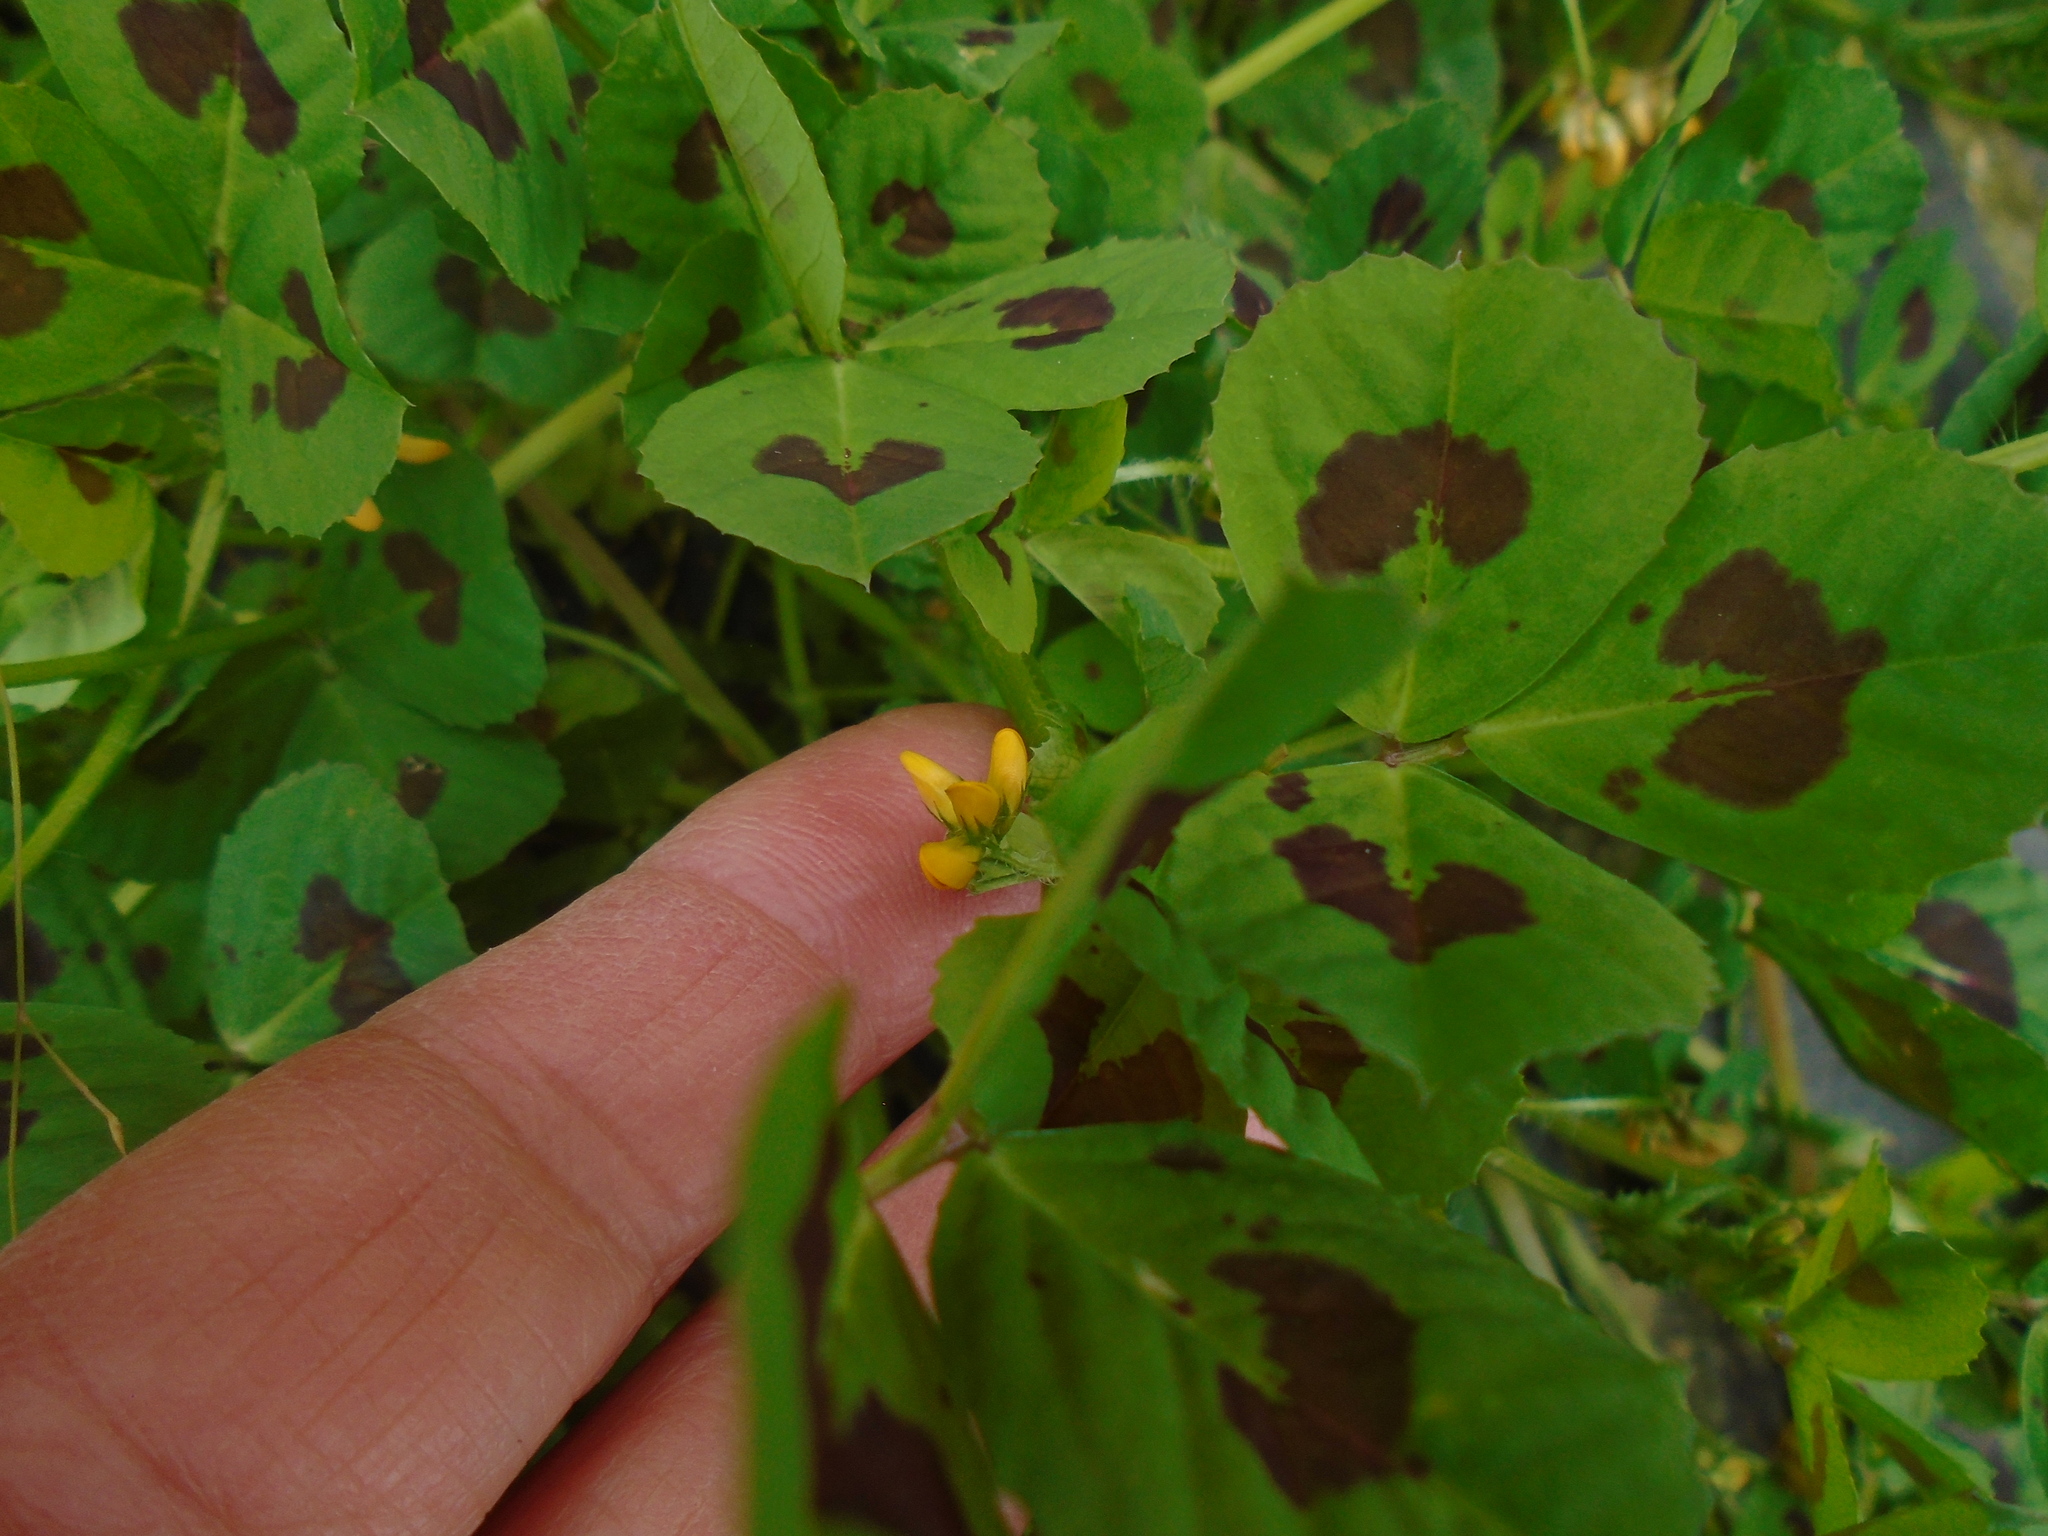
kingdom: Plantae
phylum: Tracheophyta
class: Magnoliopsida
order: Fabales
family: Fabaceae
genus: Medicago
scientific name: Medicago arabica
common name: Spotted medick
